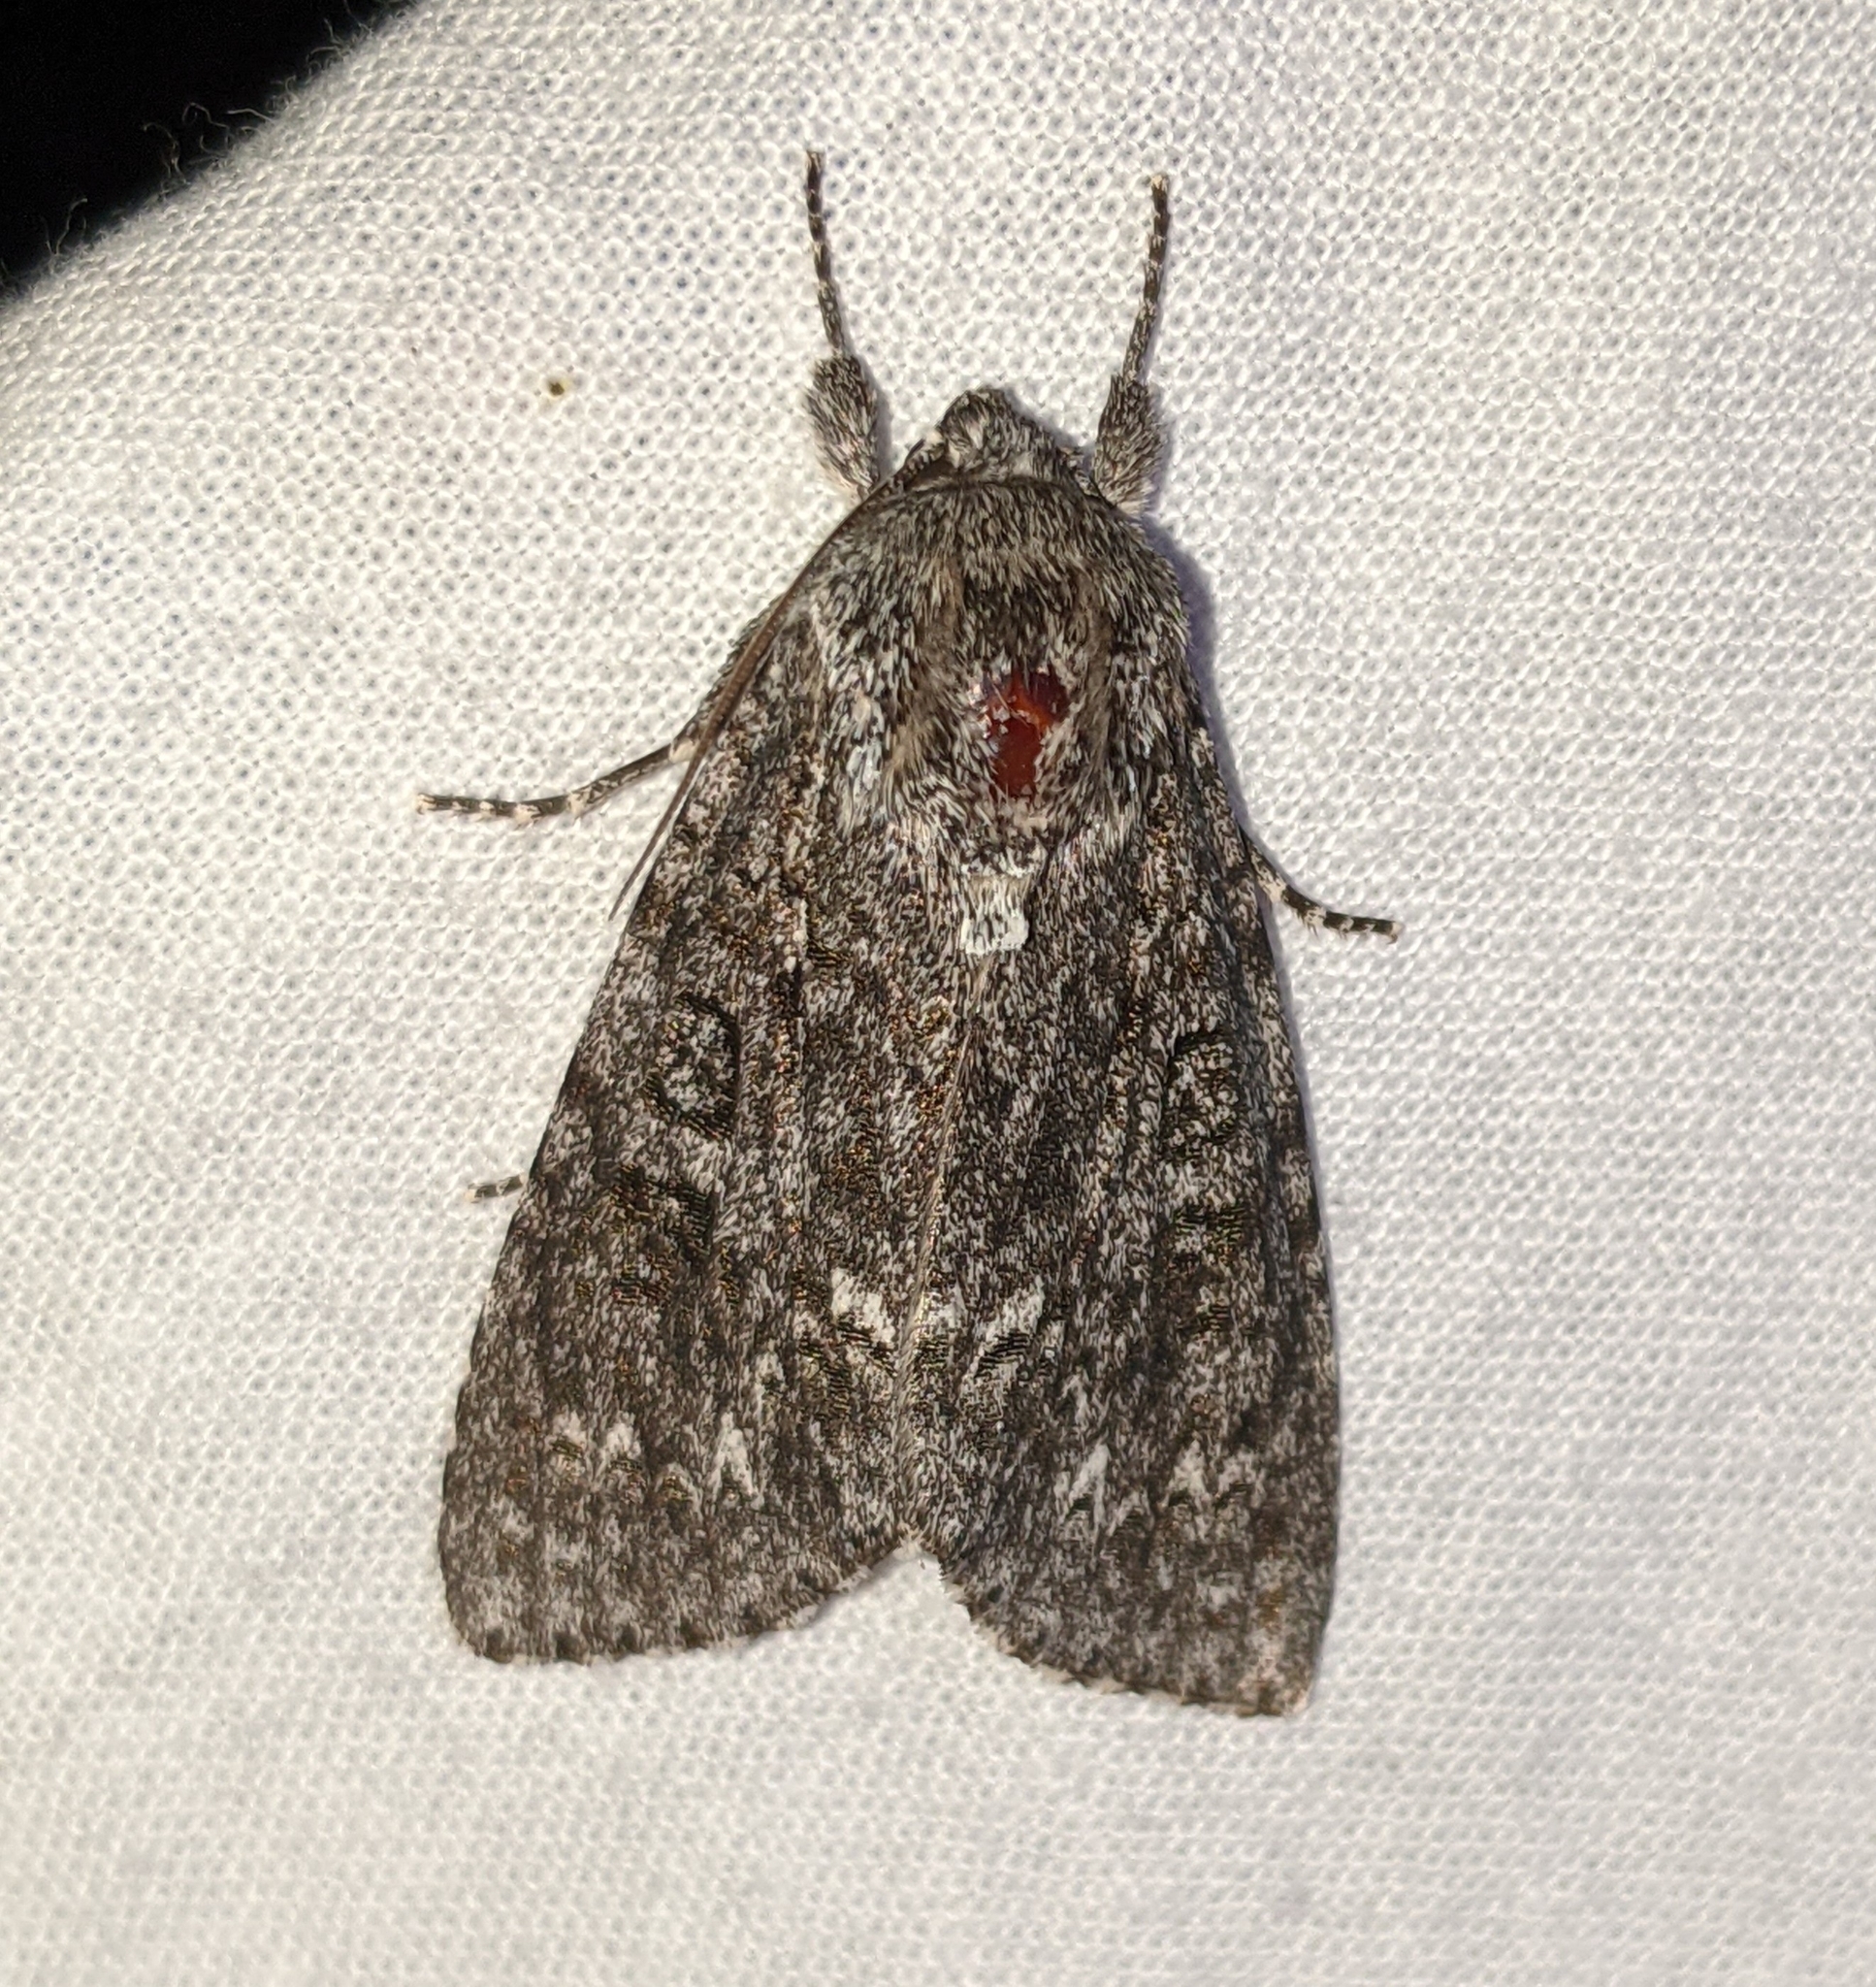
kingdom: Animalia
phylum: Arthropoda
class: Insecta
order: Lepidoptera
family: Noctuidae
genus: Acronicta
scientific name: Acronicta impleta
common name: Powdered dagger
